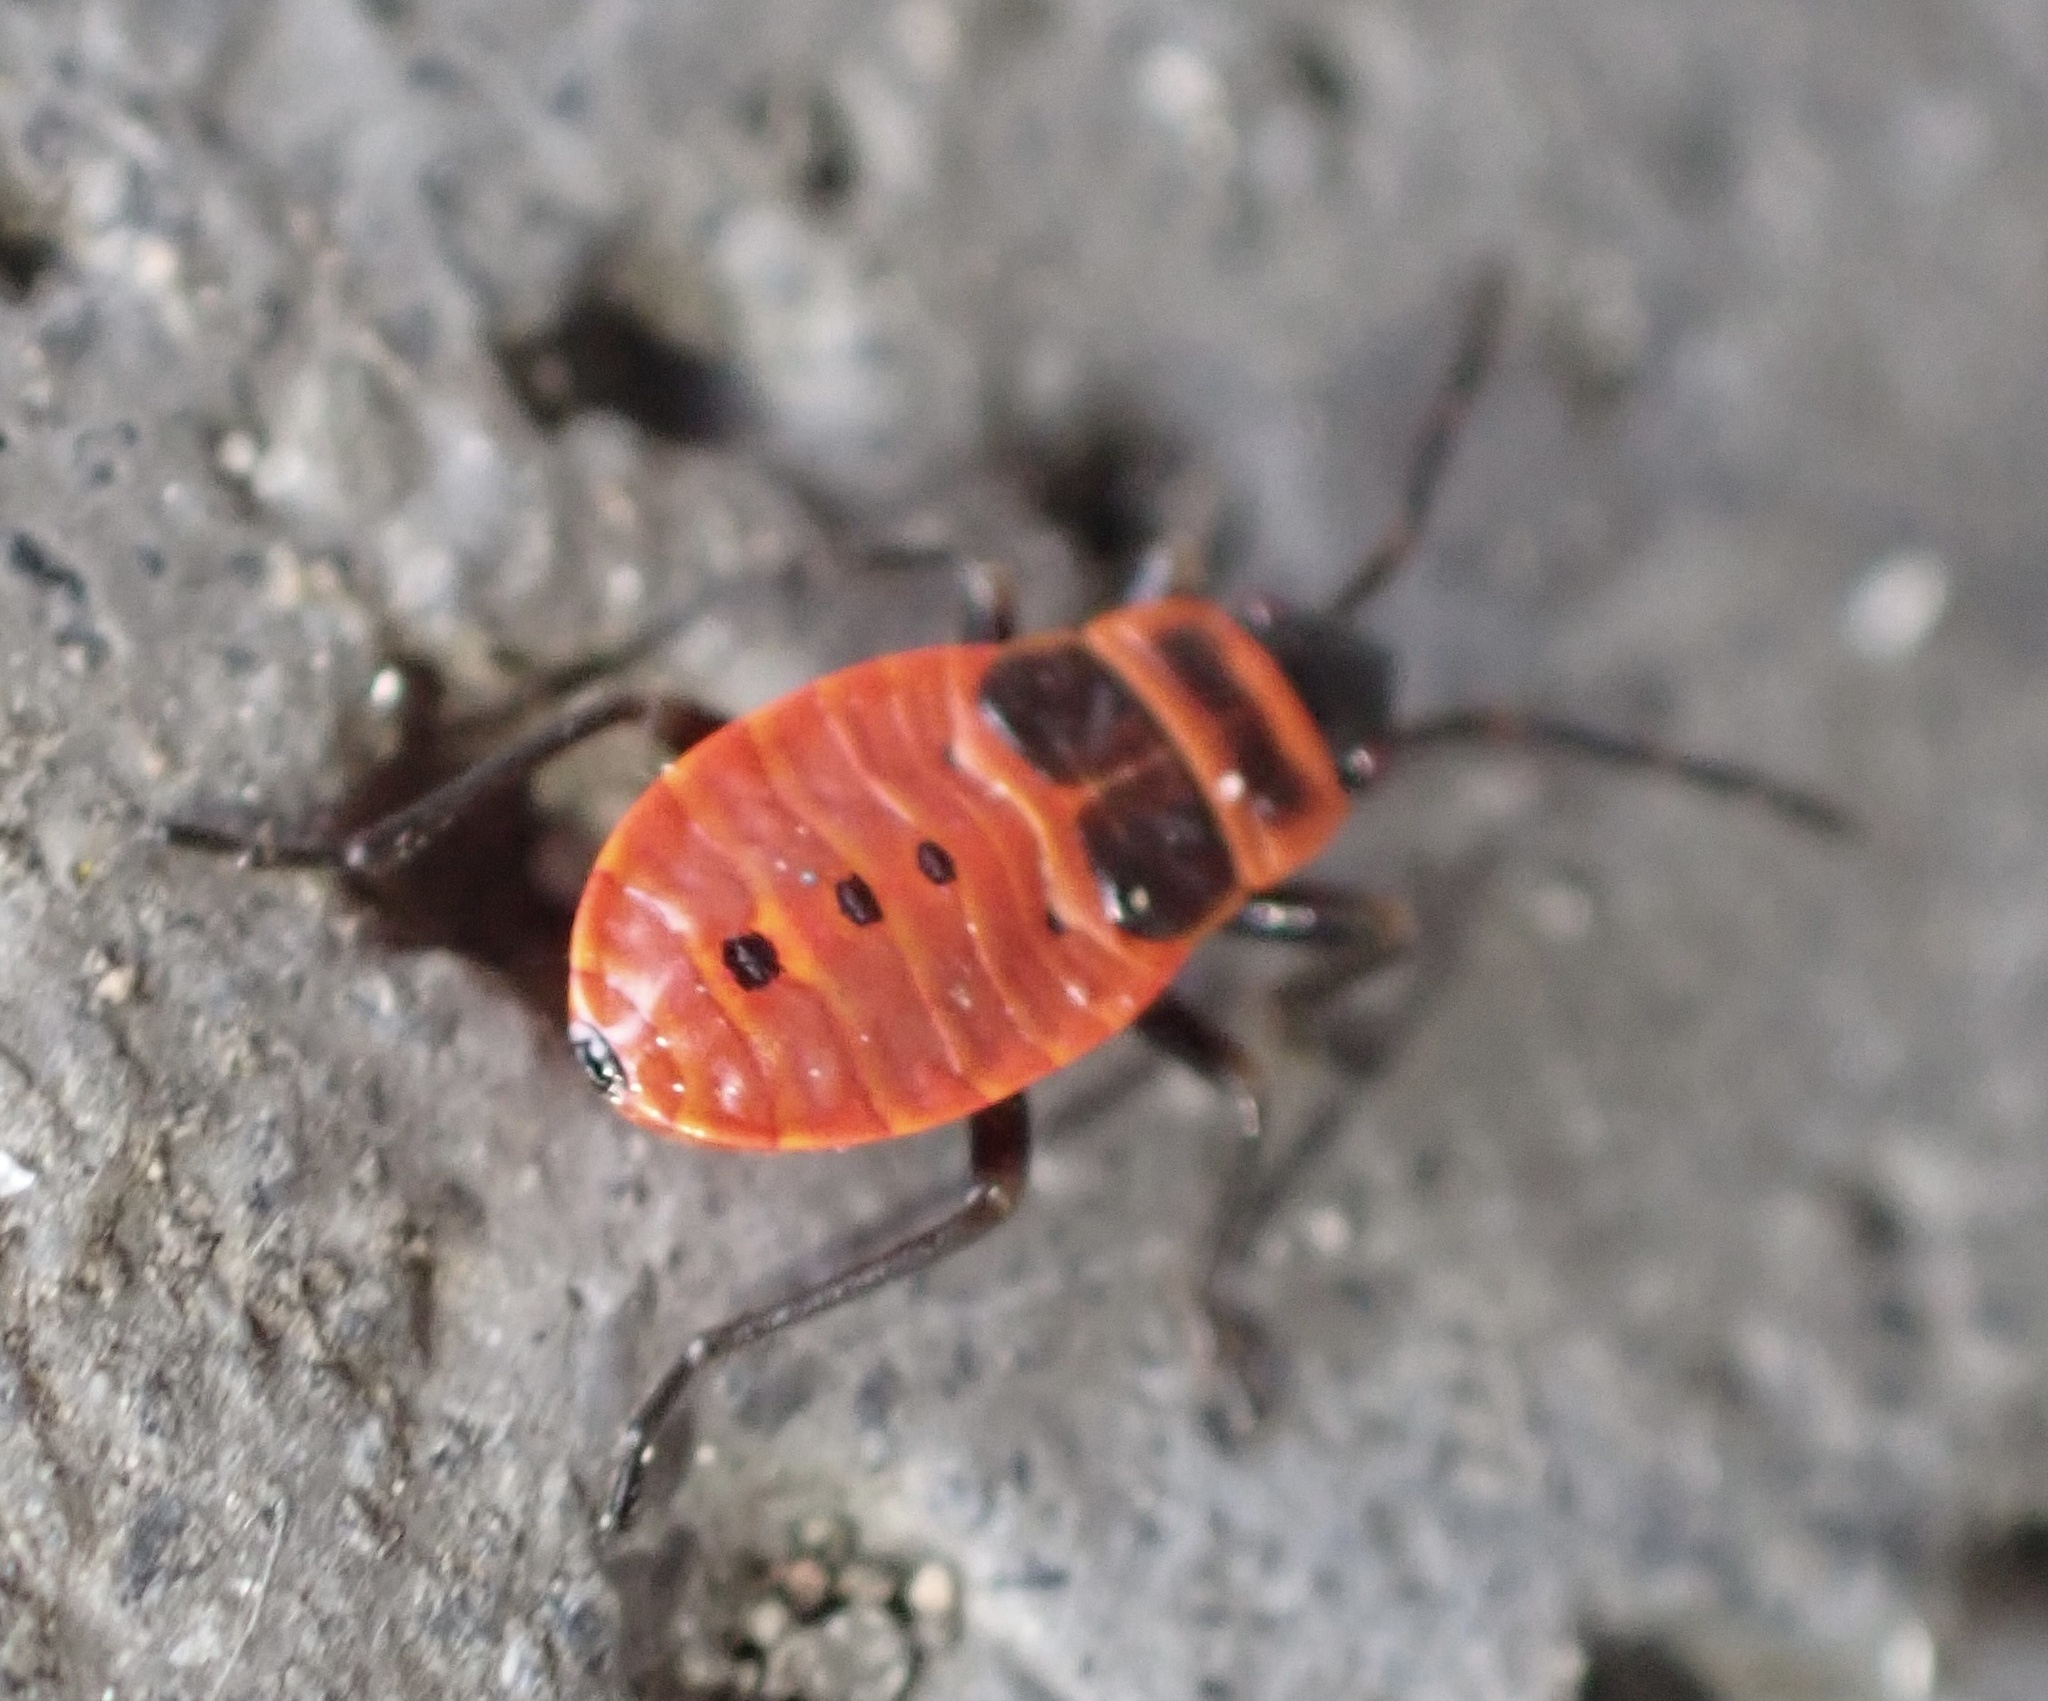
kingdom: Animalia
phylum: Arthropoda
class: Insecta
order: Hemiptera
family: Pyrrhocoridae
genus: Pyrrhocoris
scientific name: Pyrrhocoris apterus
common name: Firebug
